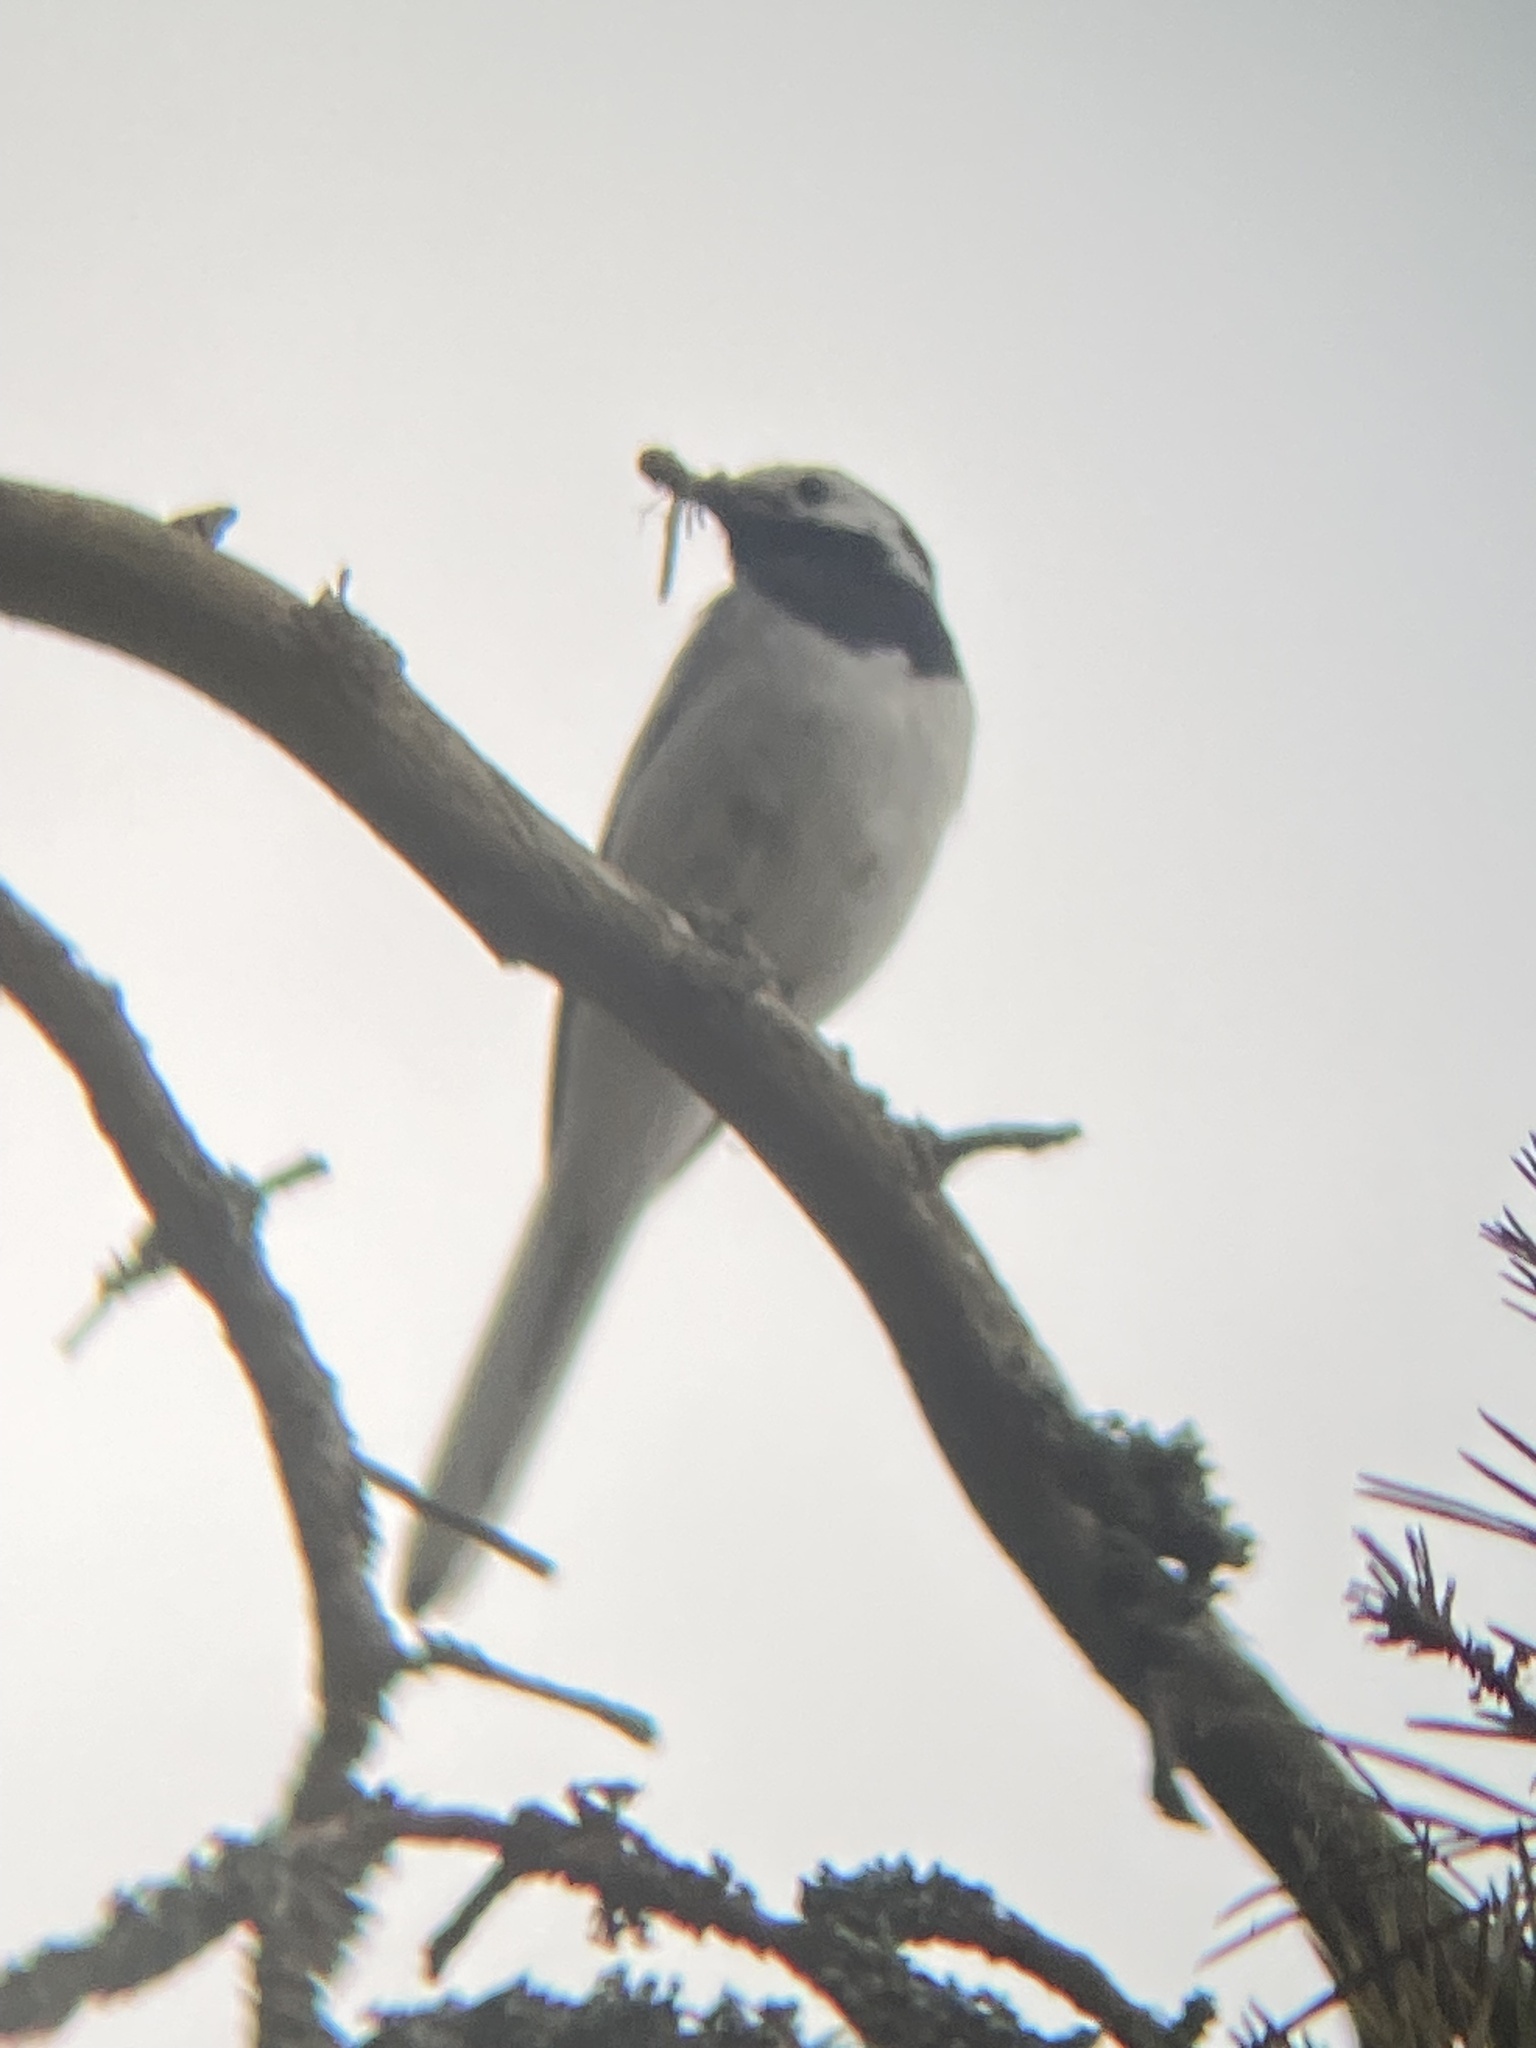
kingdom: Animalia
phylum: Chordata
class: Aves
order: Passeriformes
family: Motacillidae
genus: Motacilla
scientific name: Motacilla alba
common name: White wagtail
